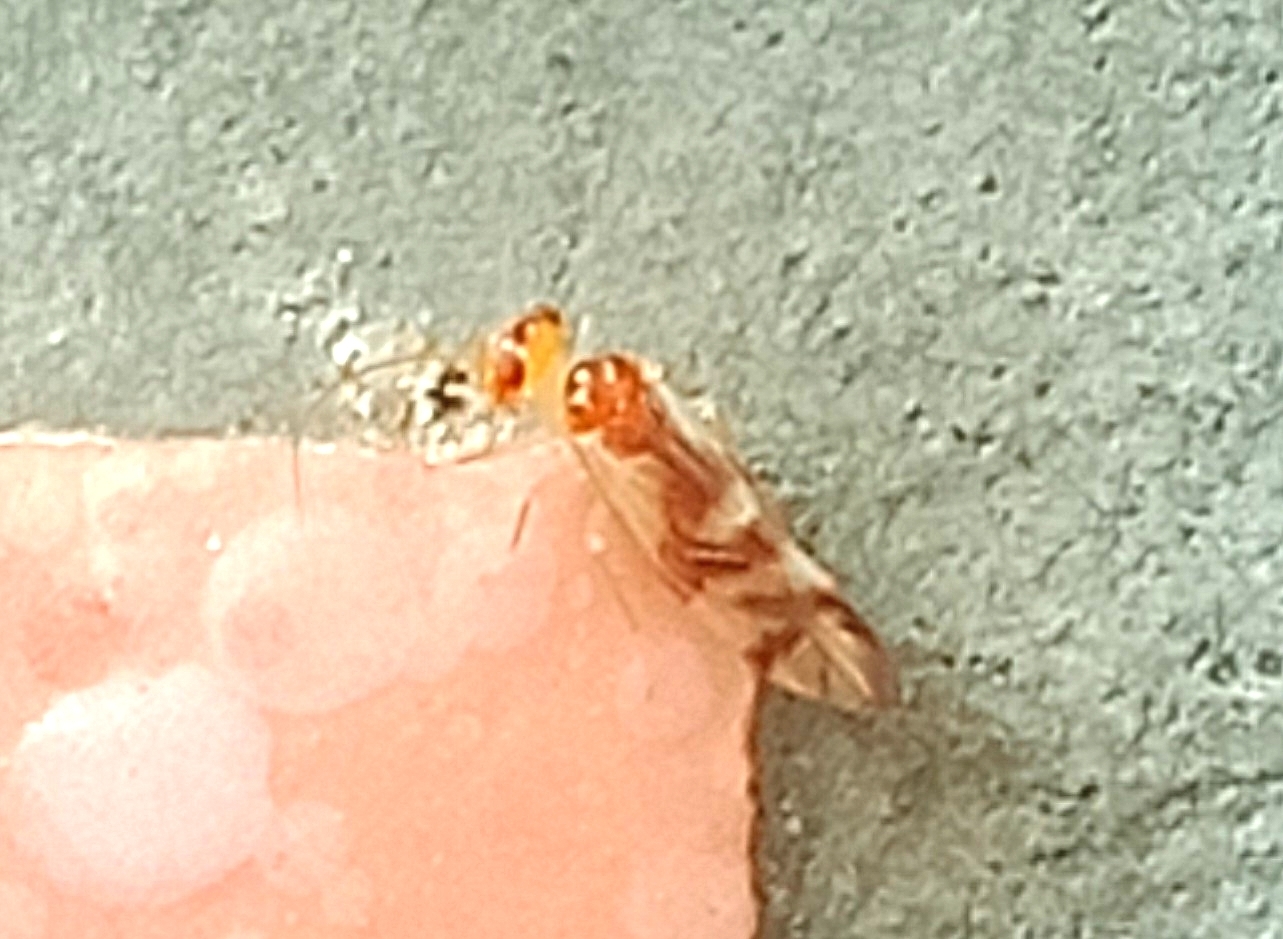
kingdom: Animalia
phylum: Arthropoda
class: Insecta
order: Psocodea
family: Caeciliusidae
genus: Valenzuela
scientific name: Valenzuela okamotoi
